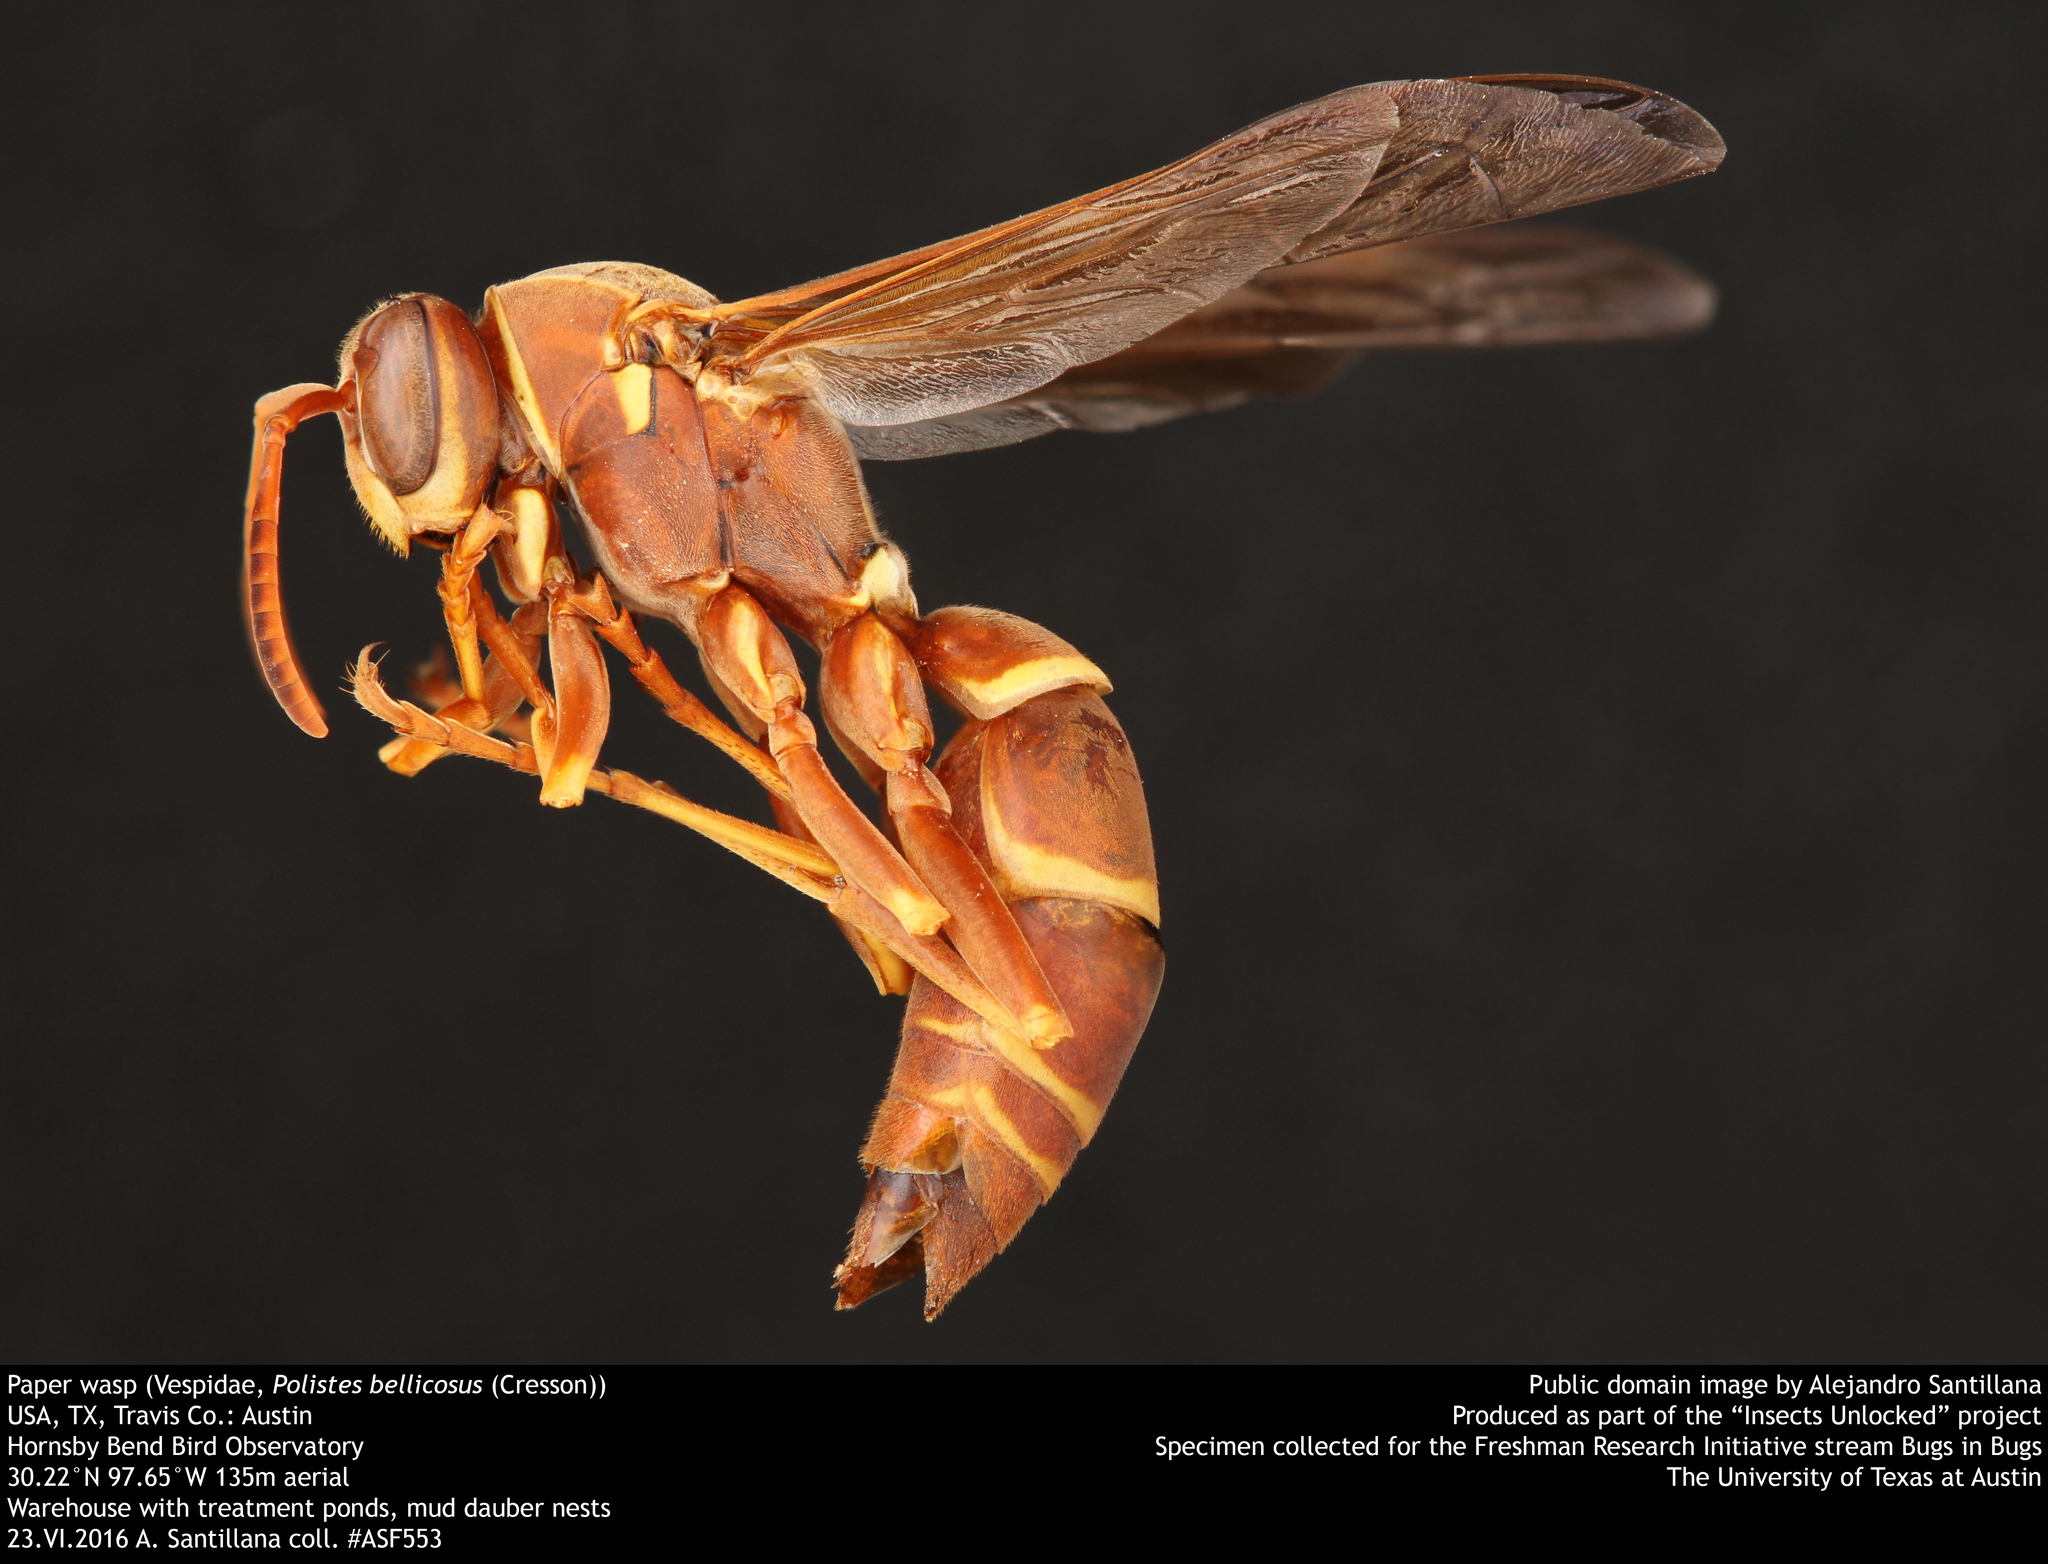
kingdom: Animalia
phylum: Arthropoda
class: Insecta
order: Hymenoptera
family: Eumenidae
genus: Polistes
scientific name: Polistes bellicosus
